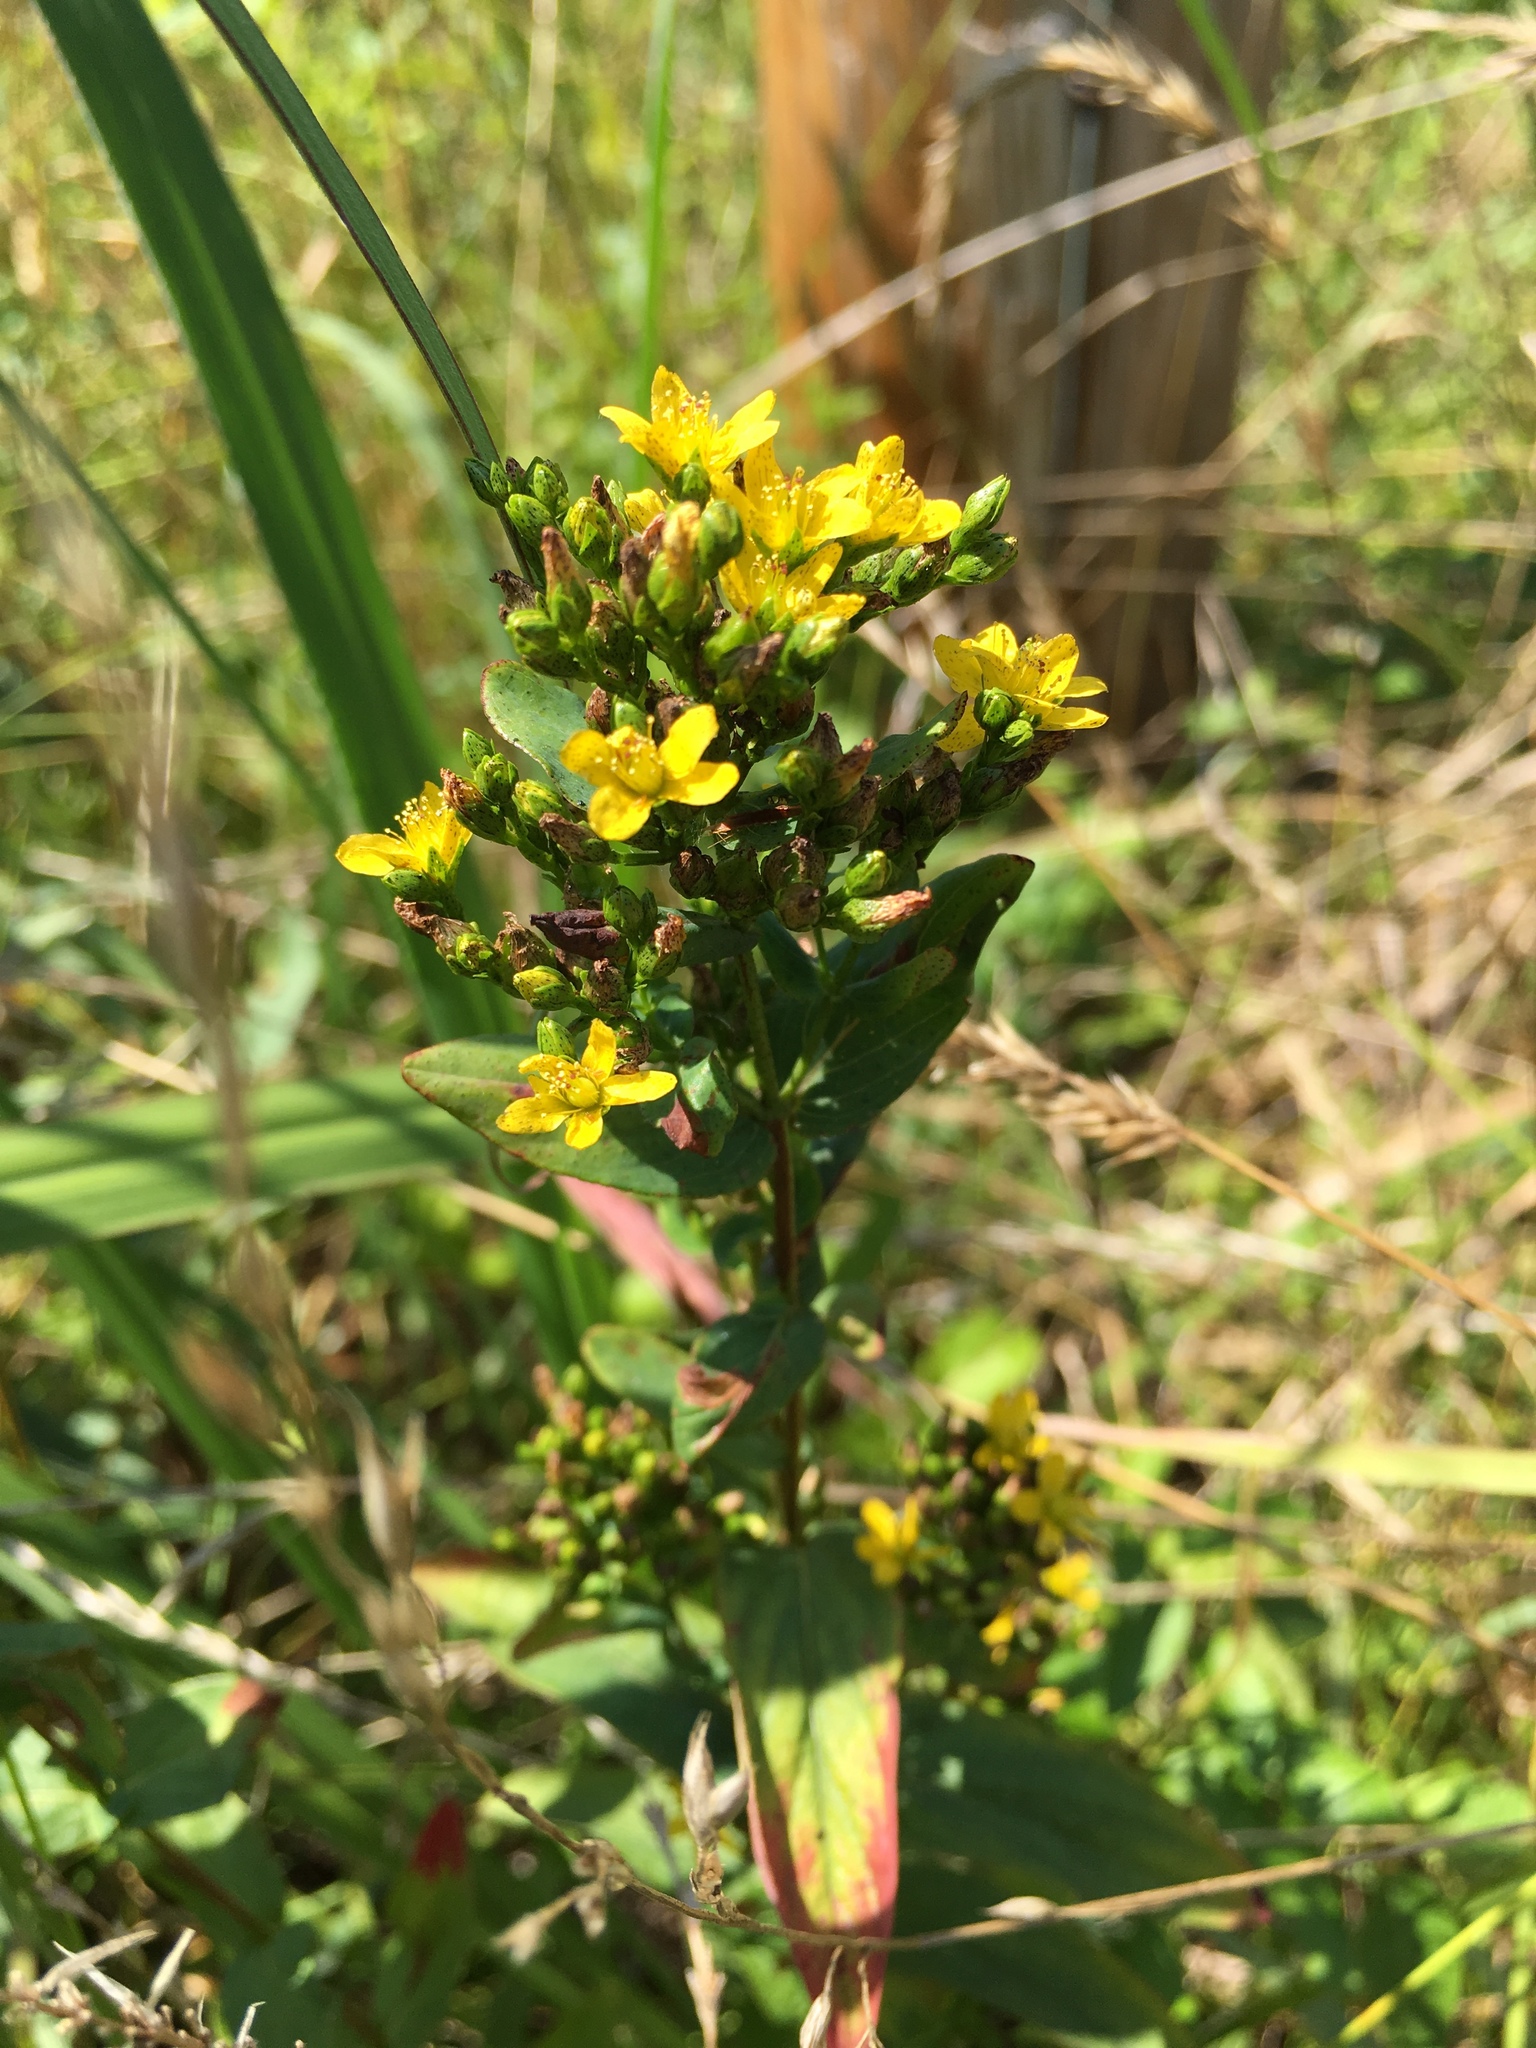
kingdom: Plantae
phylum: Tracheophyta
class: Magnoliopsida
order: Malpighiales
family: Hypericaceae
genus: Hypericum
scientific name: Hypericum punctatum
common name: Spotted st. john's-wort
